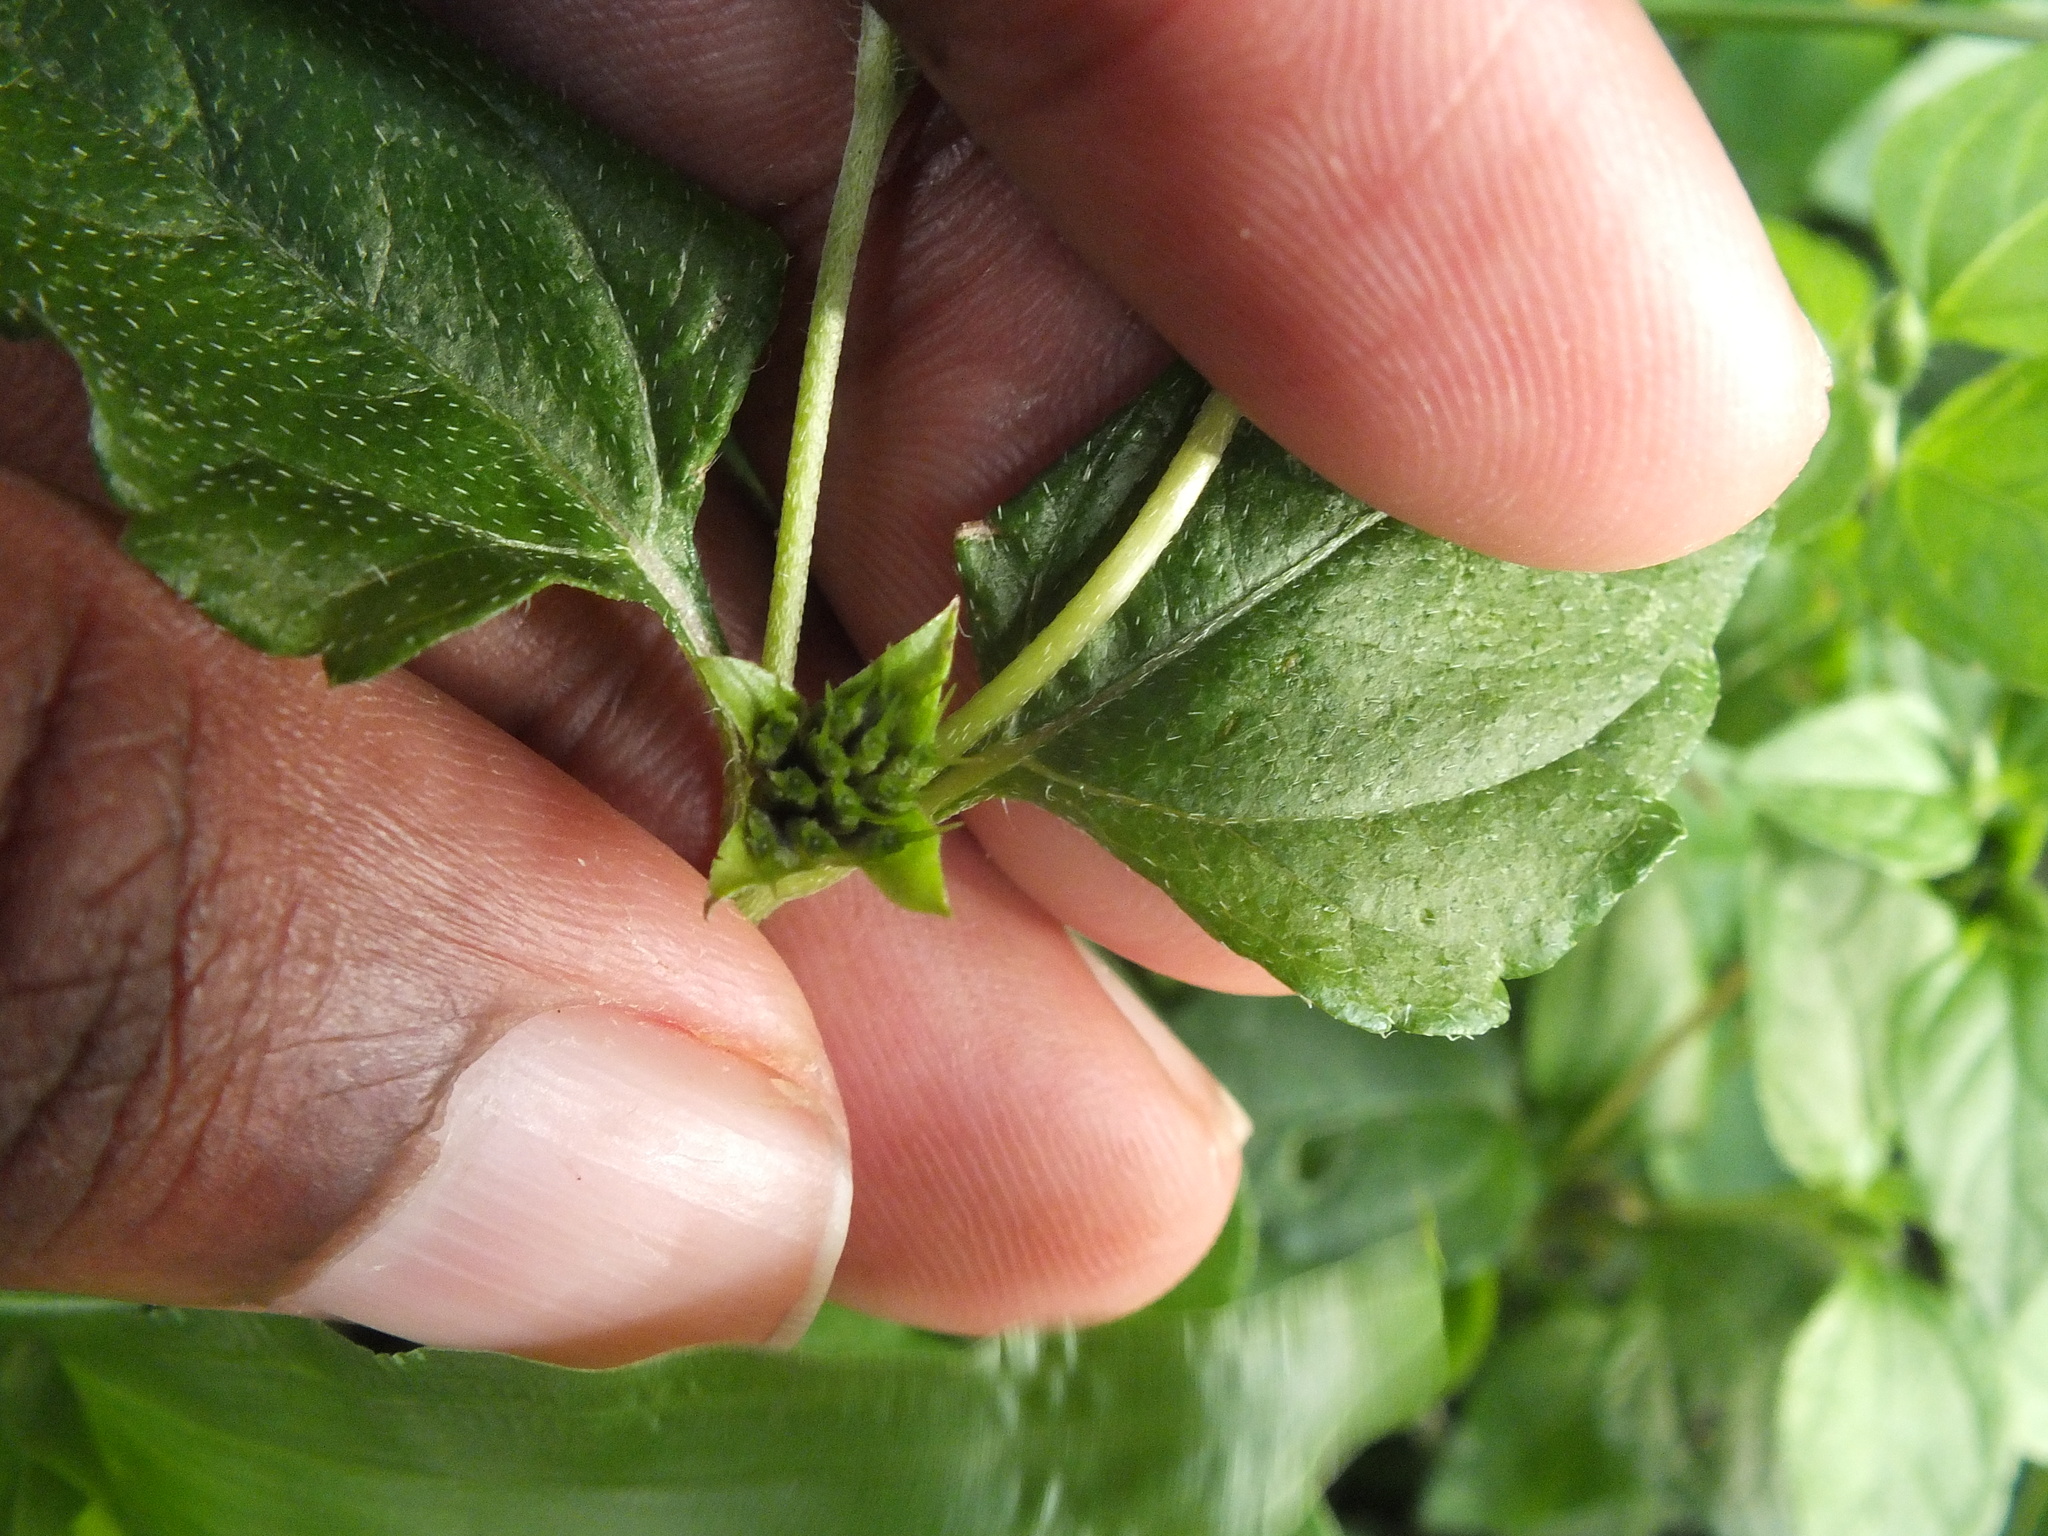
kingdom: Plantae
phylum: Tracheophyta
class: Magnoliopsida
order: Asterales
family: Asteraceae
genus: Synedrella
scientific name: Synedrella nodiflora
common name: Nodeweed
